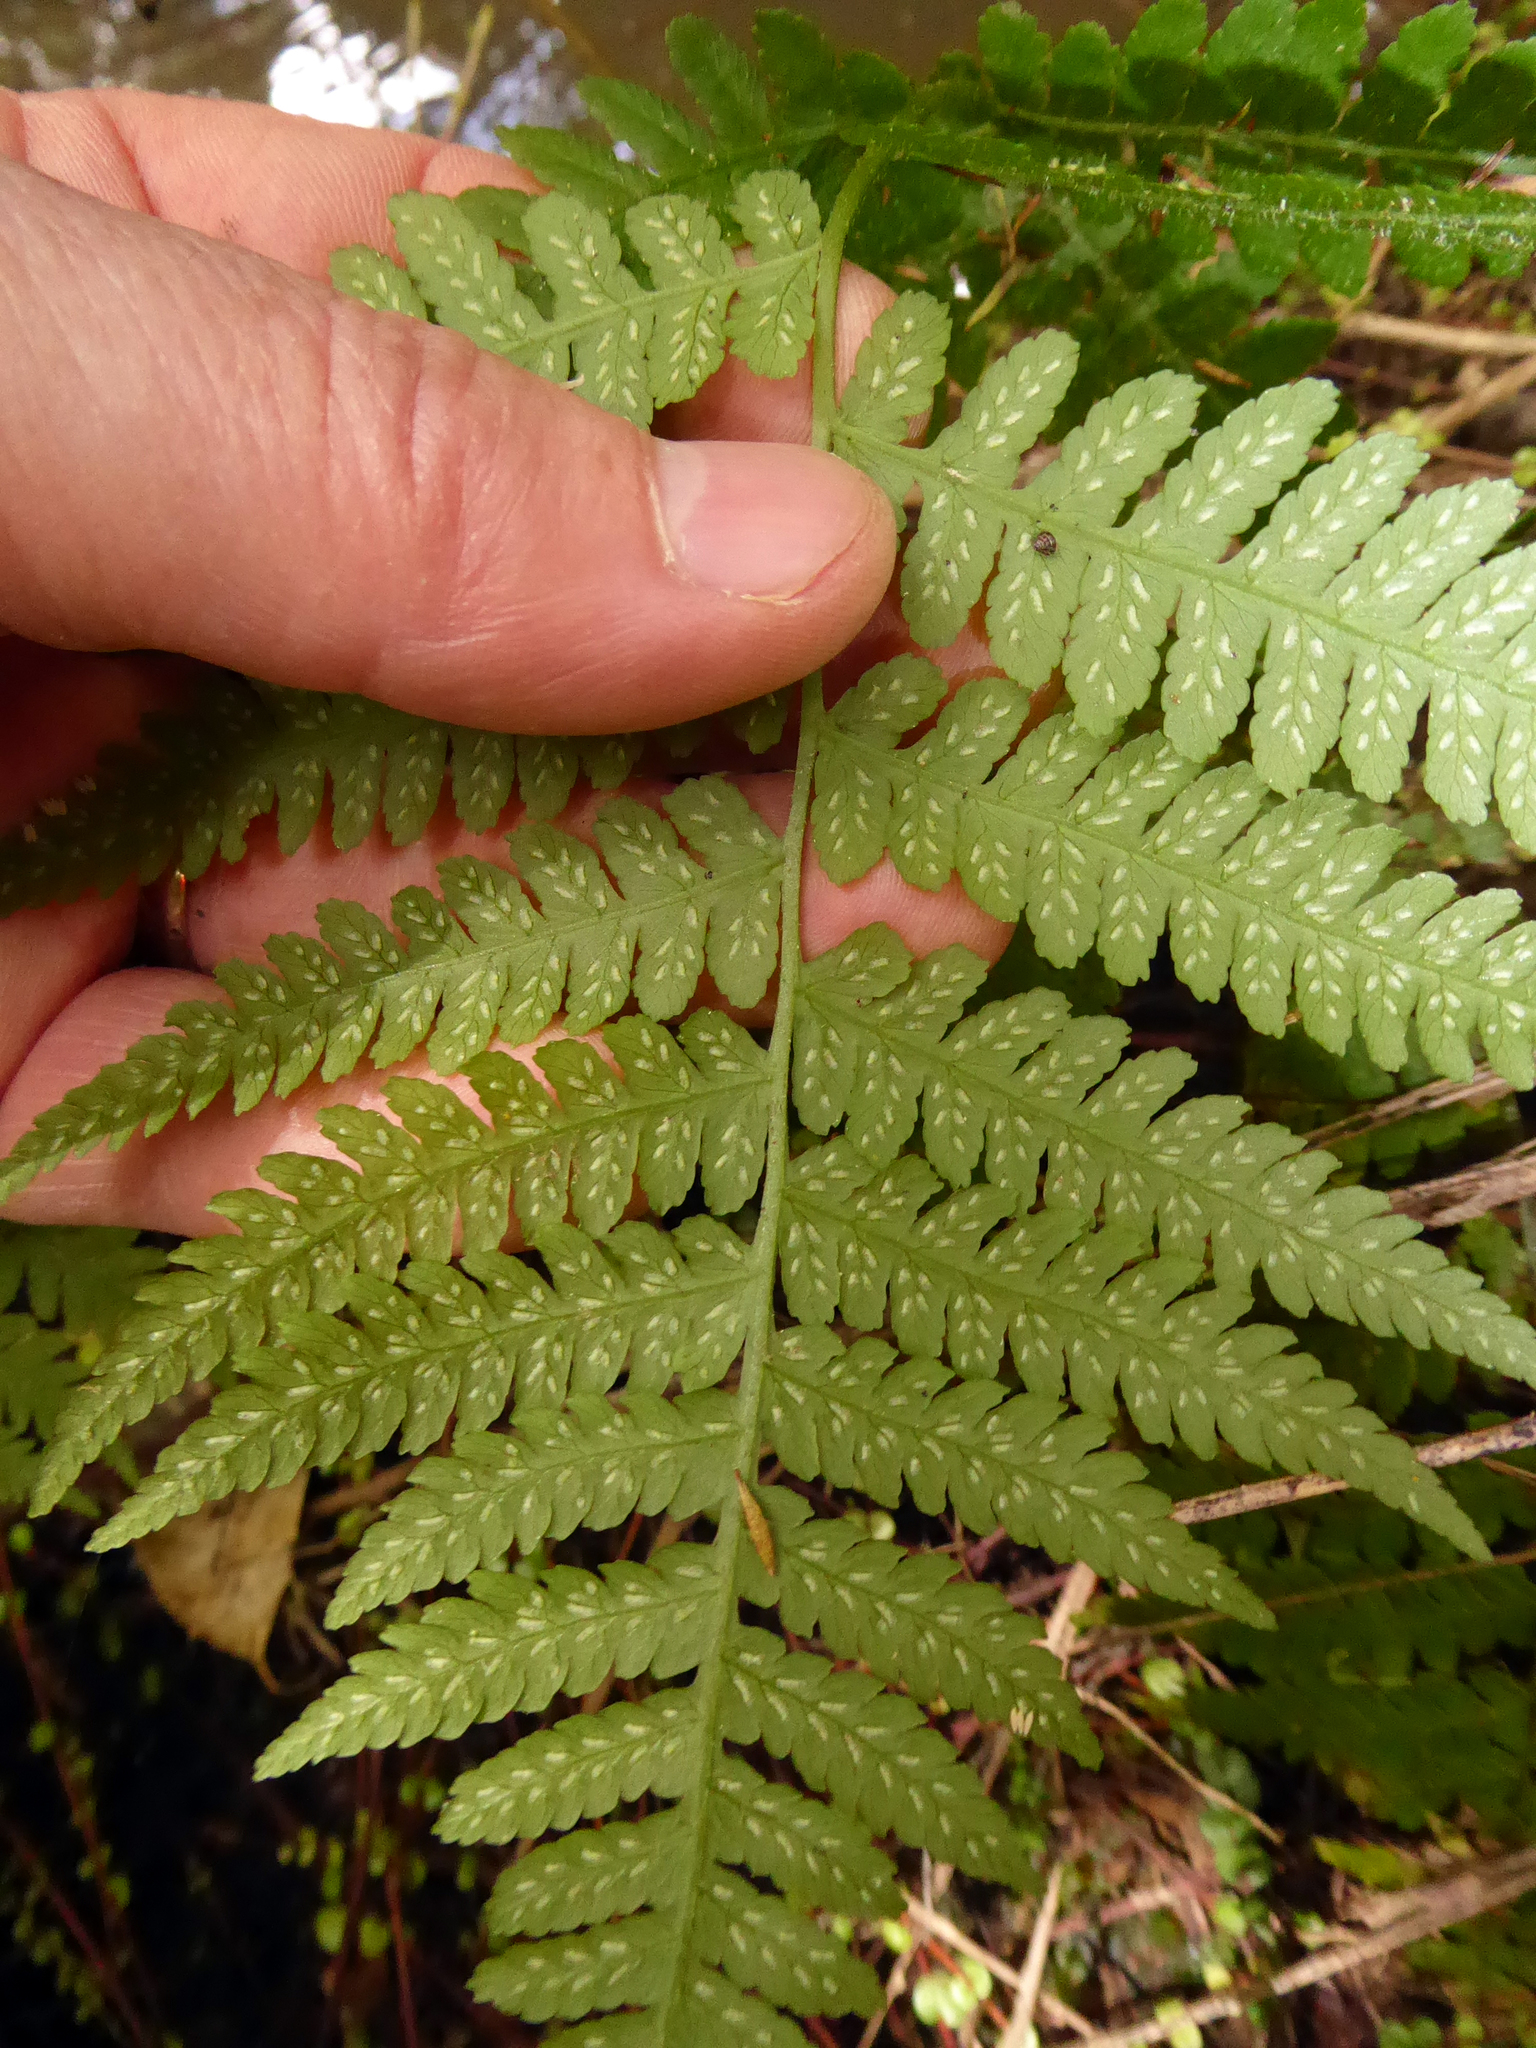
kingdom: Plantae
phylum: Tracheophyta
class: Polypodiopsida
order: Polypodiales
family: Athyriaceae
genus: Diplazium
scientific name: Diplazium congruum
